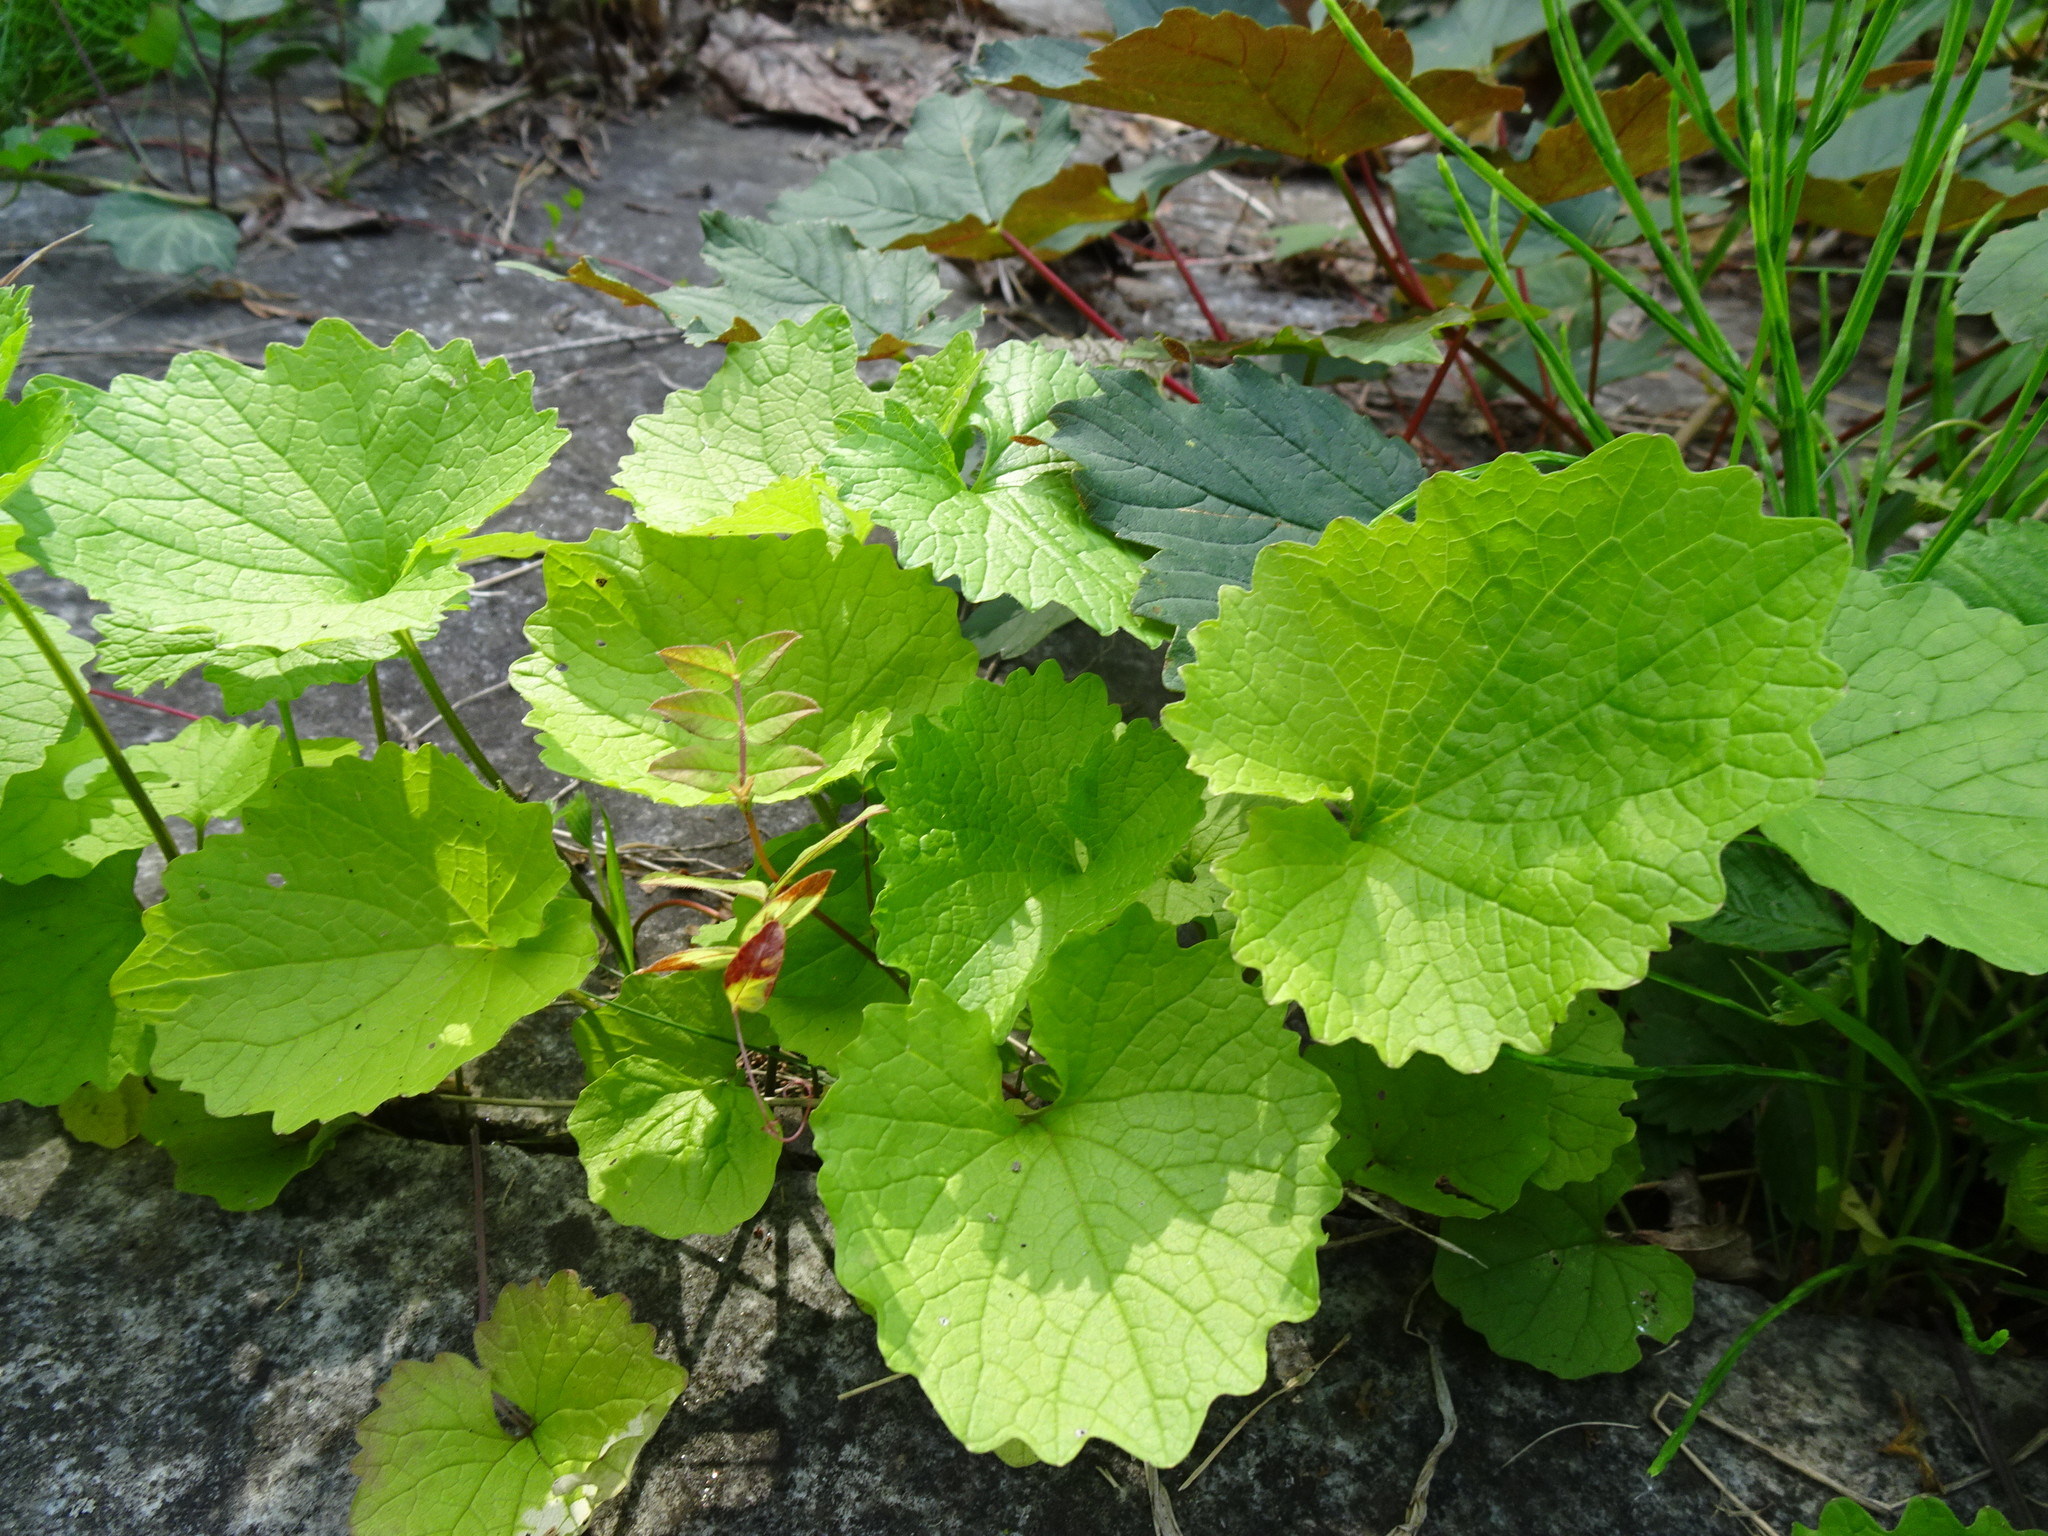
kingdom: Plantae
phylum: Tracheophyta
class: Magnoliopsida
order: Brassicales
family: Brassicaceae
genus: Alliaria
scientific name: Alliaria petiolata
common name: Garlic mustard
